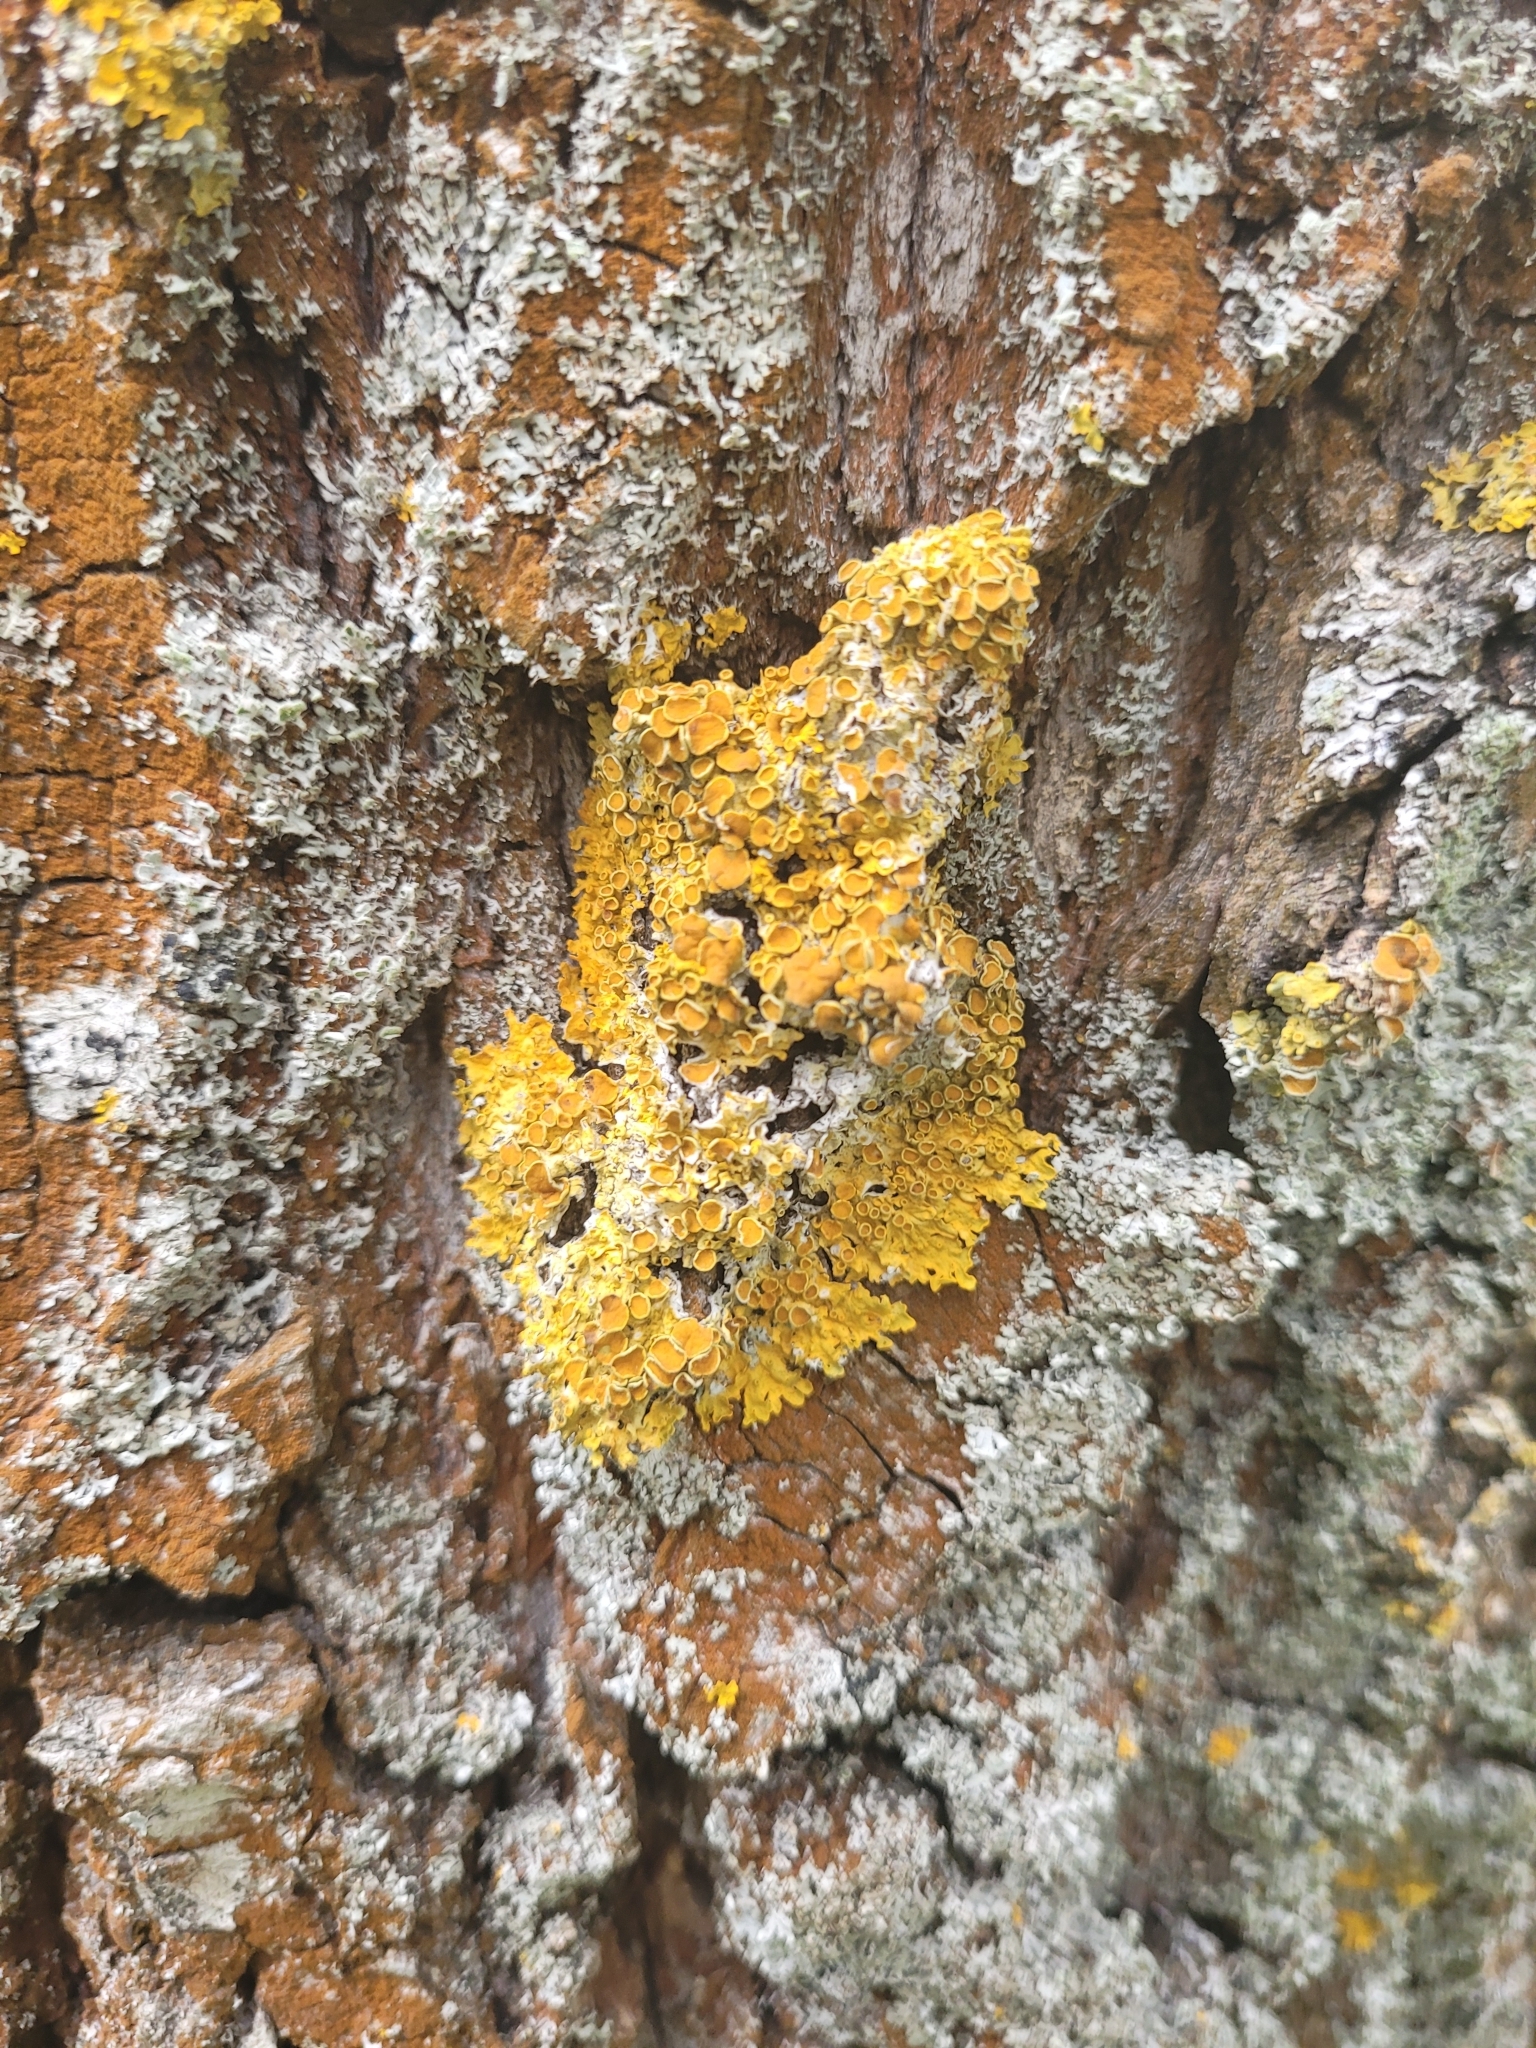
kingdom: Fungi
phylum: Ascomycota
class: Lecanoromycetes
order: Teloschistales
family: Teloschistaceae
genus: Xanthoria
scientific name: Xanthoria parietina
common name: Common orange lichen
